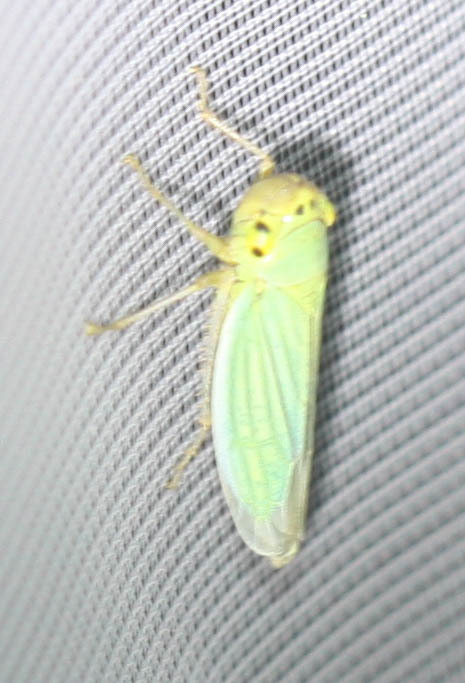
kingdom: Animalia
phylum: Arthropoda
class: Insecta
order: Hemiptera
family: Cicadellidae
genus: Cicadella
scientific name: Cicadella viridis
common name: Leafhopper
